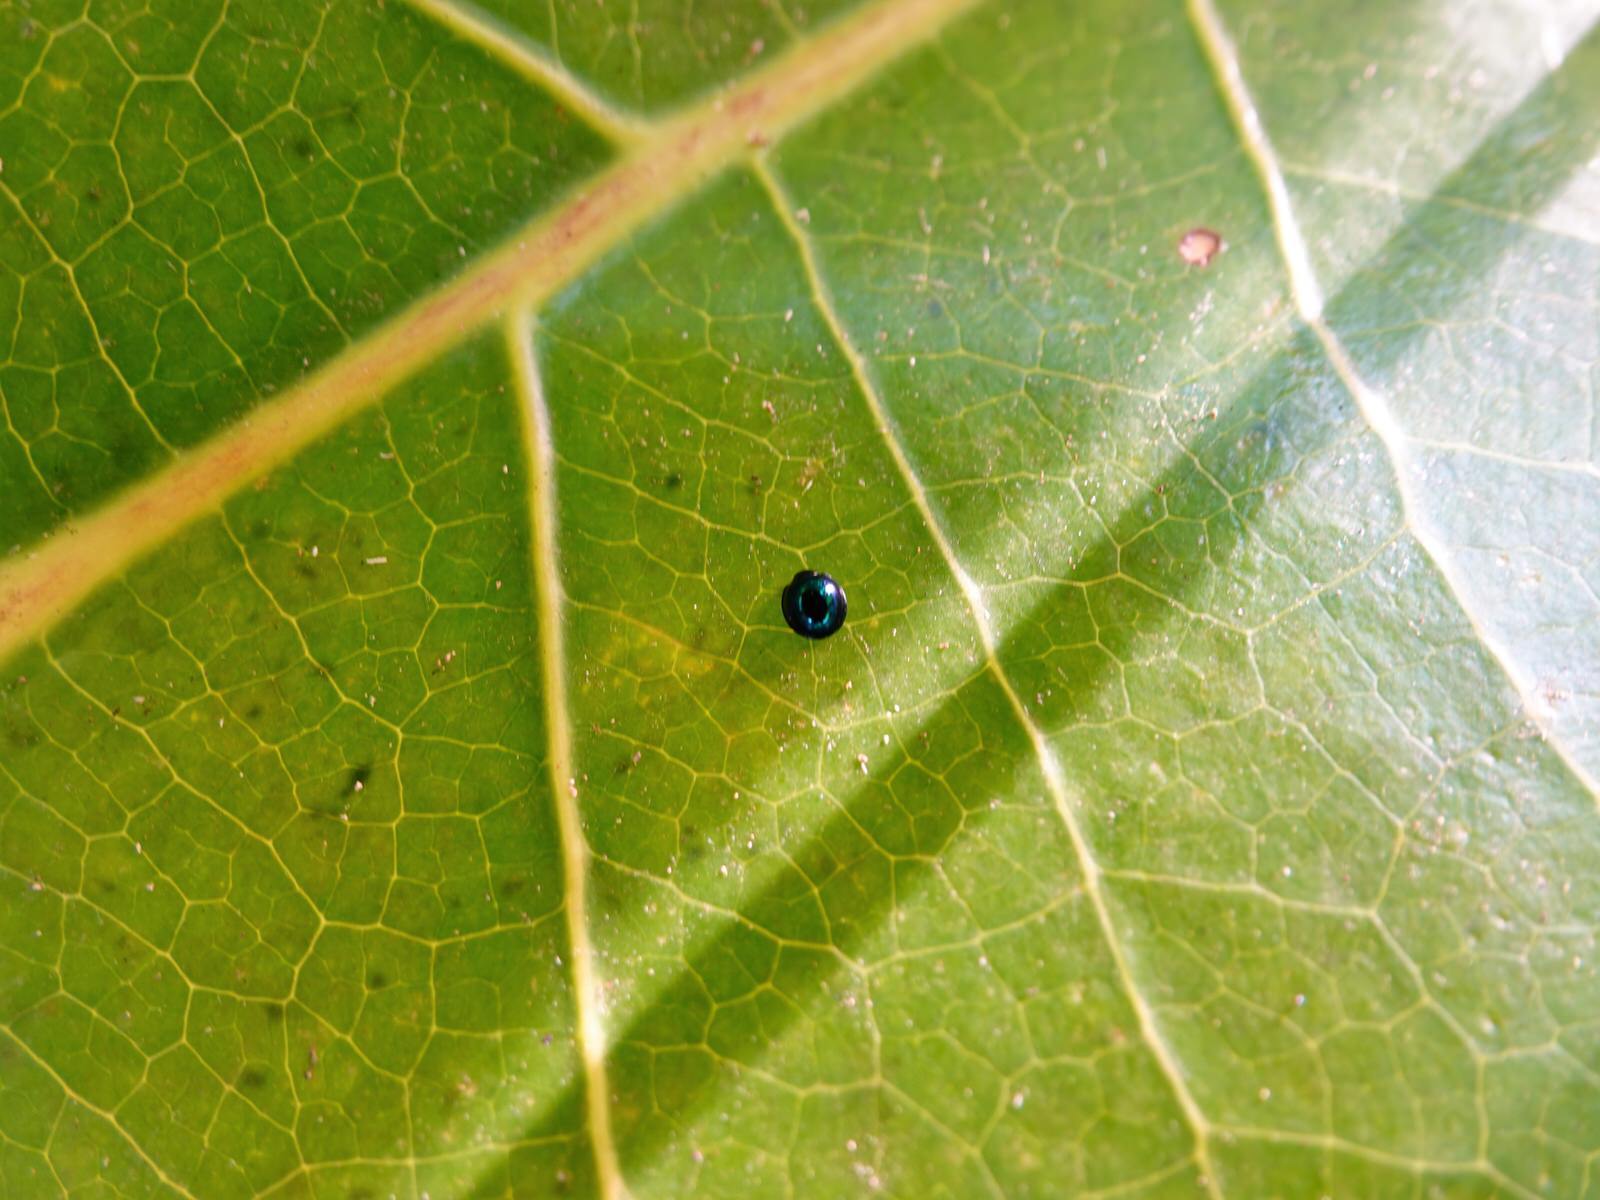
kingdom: Animalia
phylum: Arthropoda
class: Insecta
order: Coleoptera
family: Coccinellidae
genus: Halmus
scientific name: Halmus chalybeus
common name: Steel blue ladybird beetle
